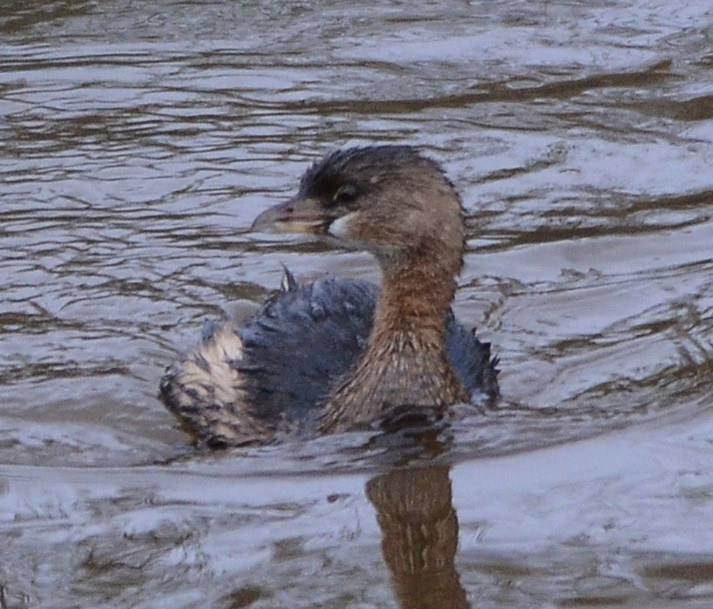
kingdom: Animalia
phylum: Chordata
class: Aves
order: Podicipediformes
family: Podicipedidae
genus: Podilymbus
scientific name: Podilymbus podiceps
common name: Pied-billed grebe
